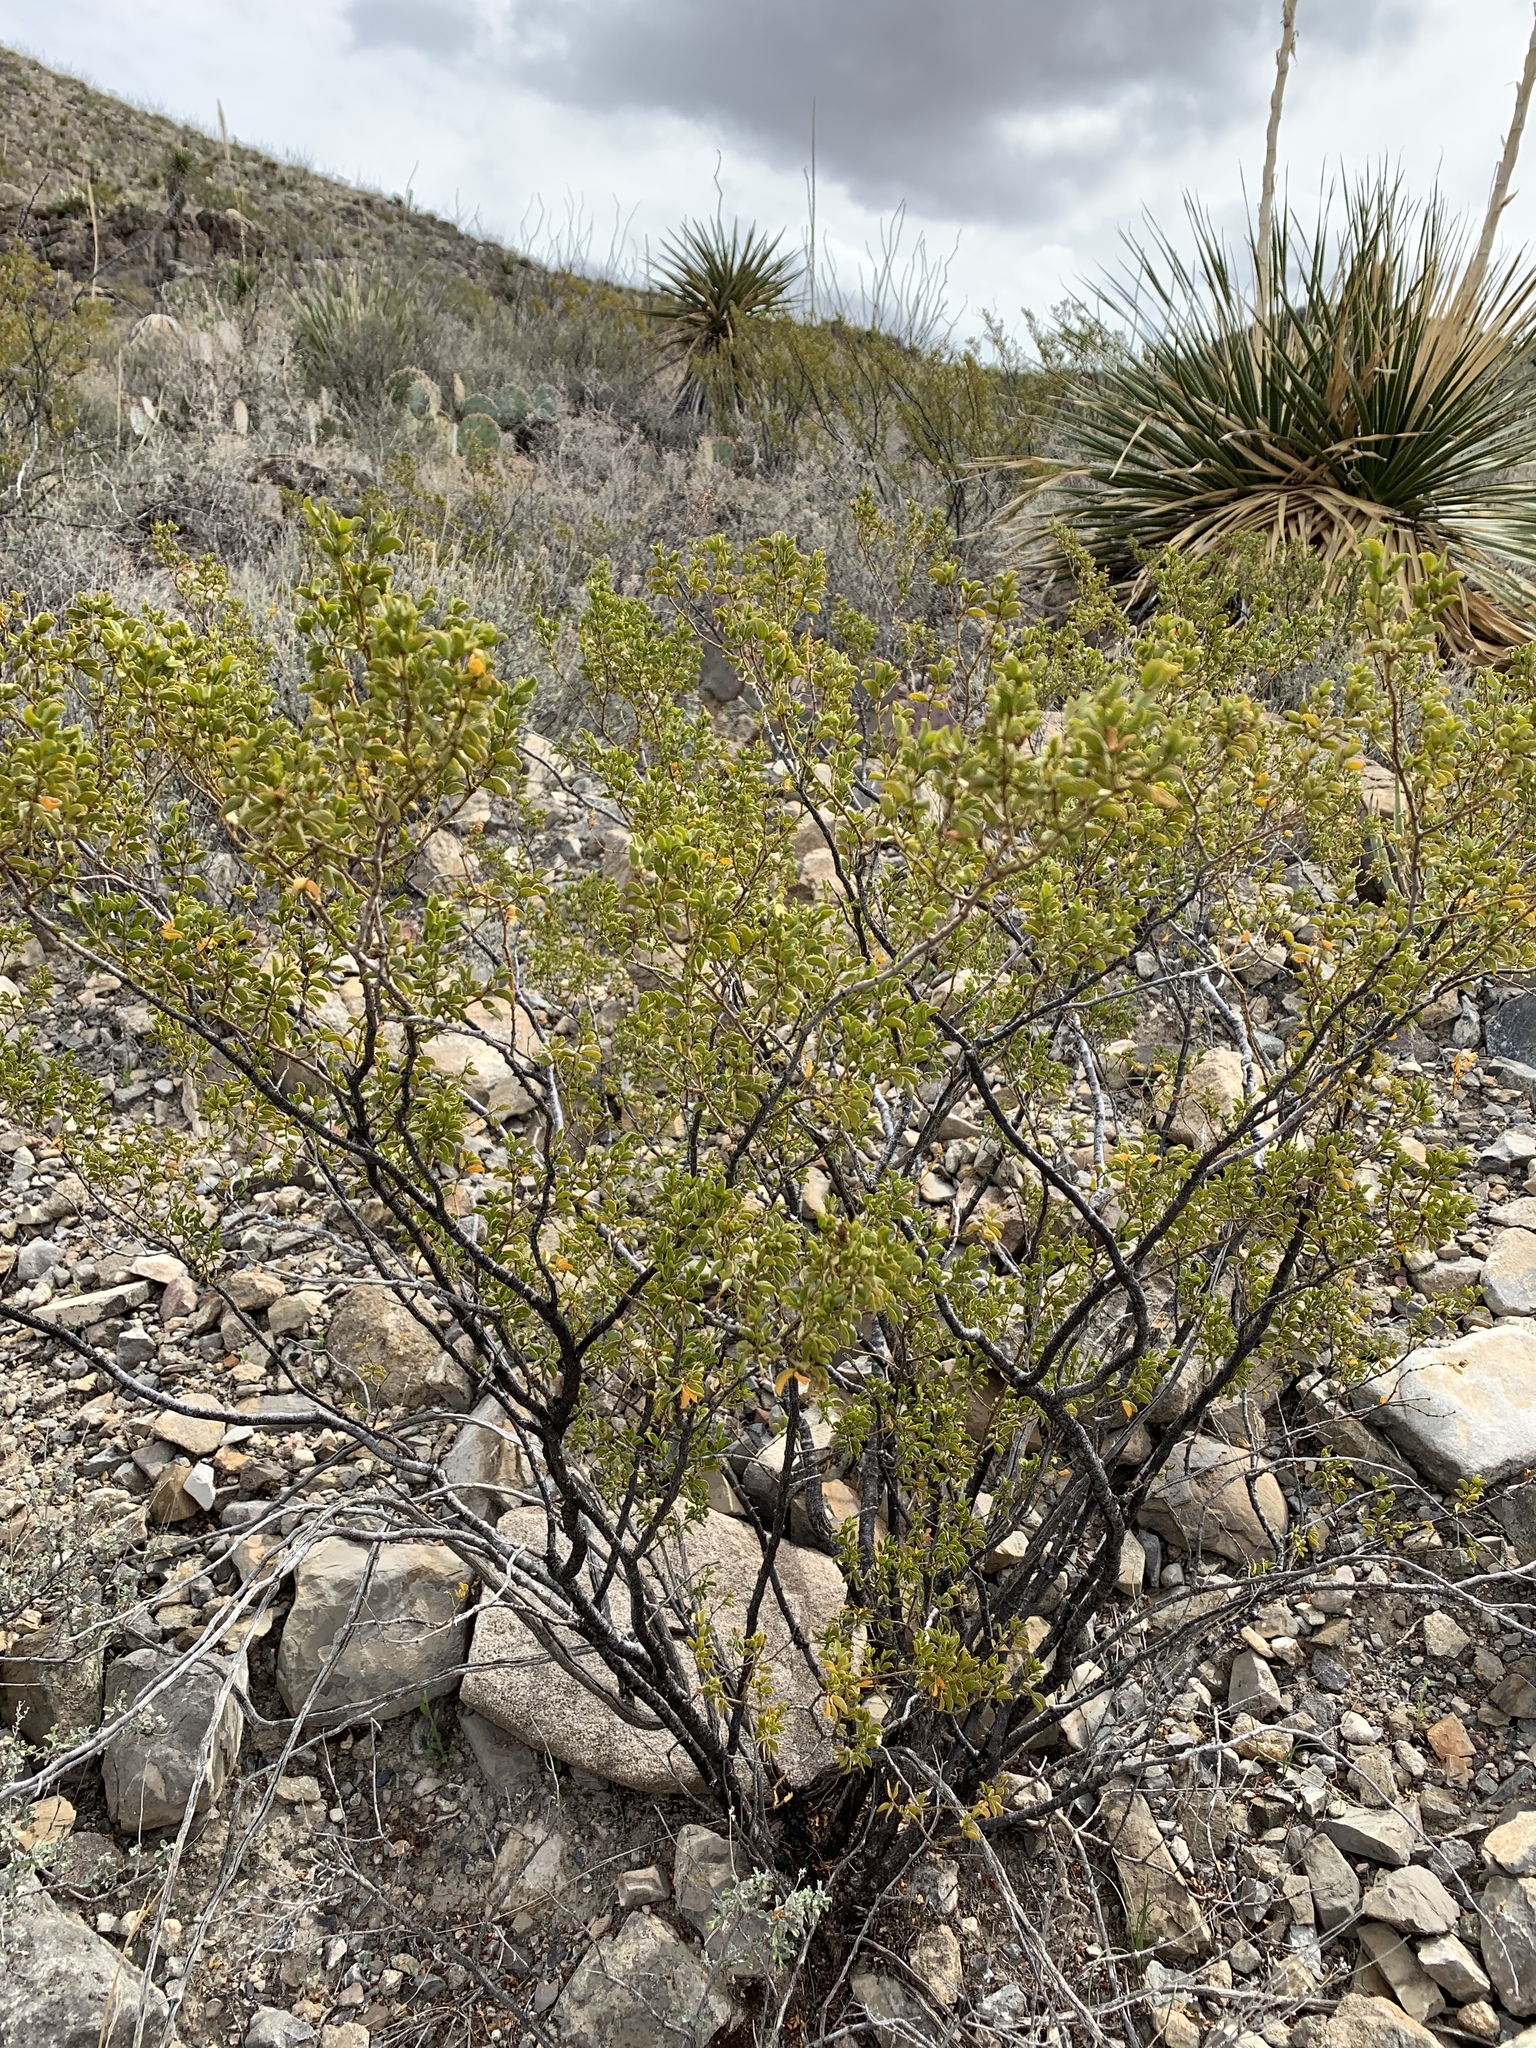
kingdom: Plantae
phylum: Tracheophyta
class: Magnoliopsida
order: Zygophyllales
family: Zygophyllaceae
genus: Larrea
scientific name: Larrea tridentata
